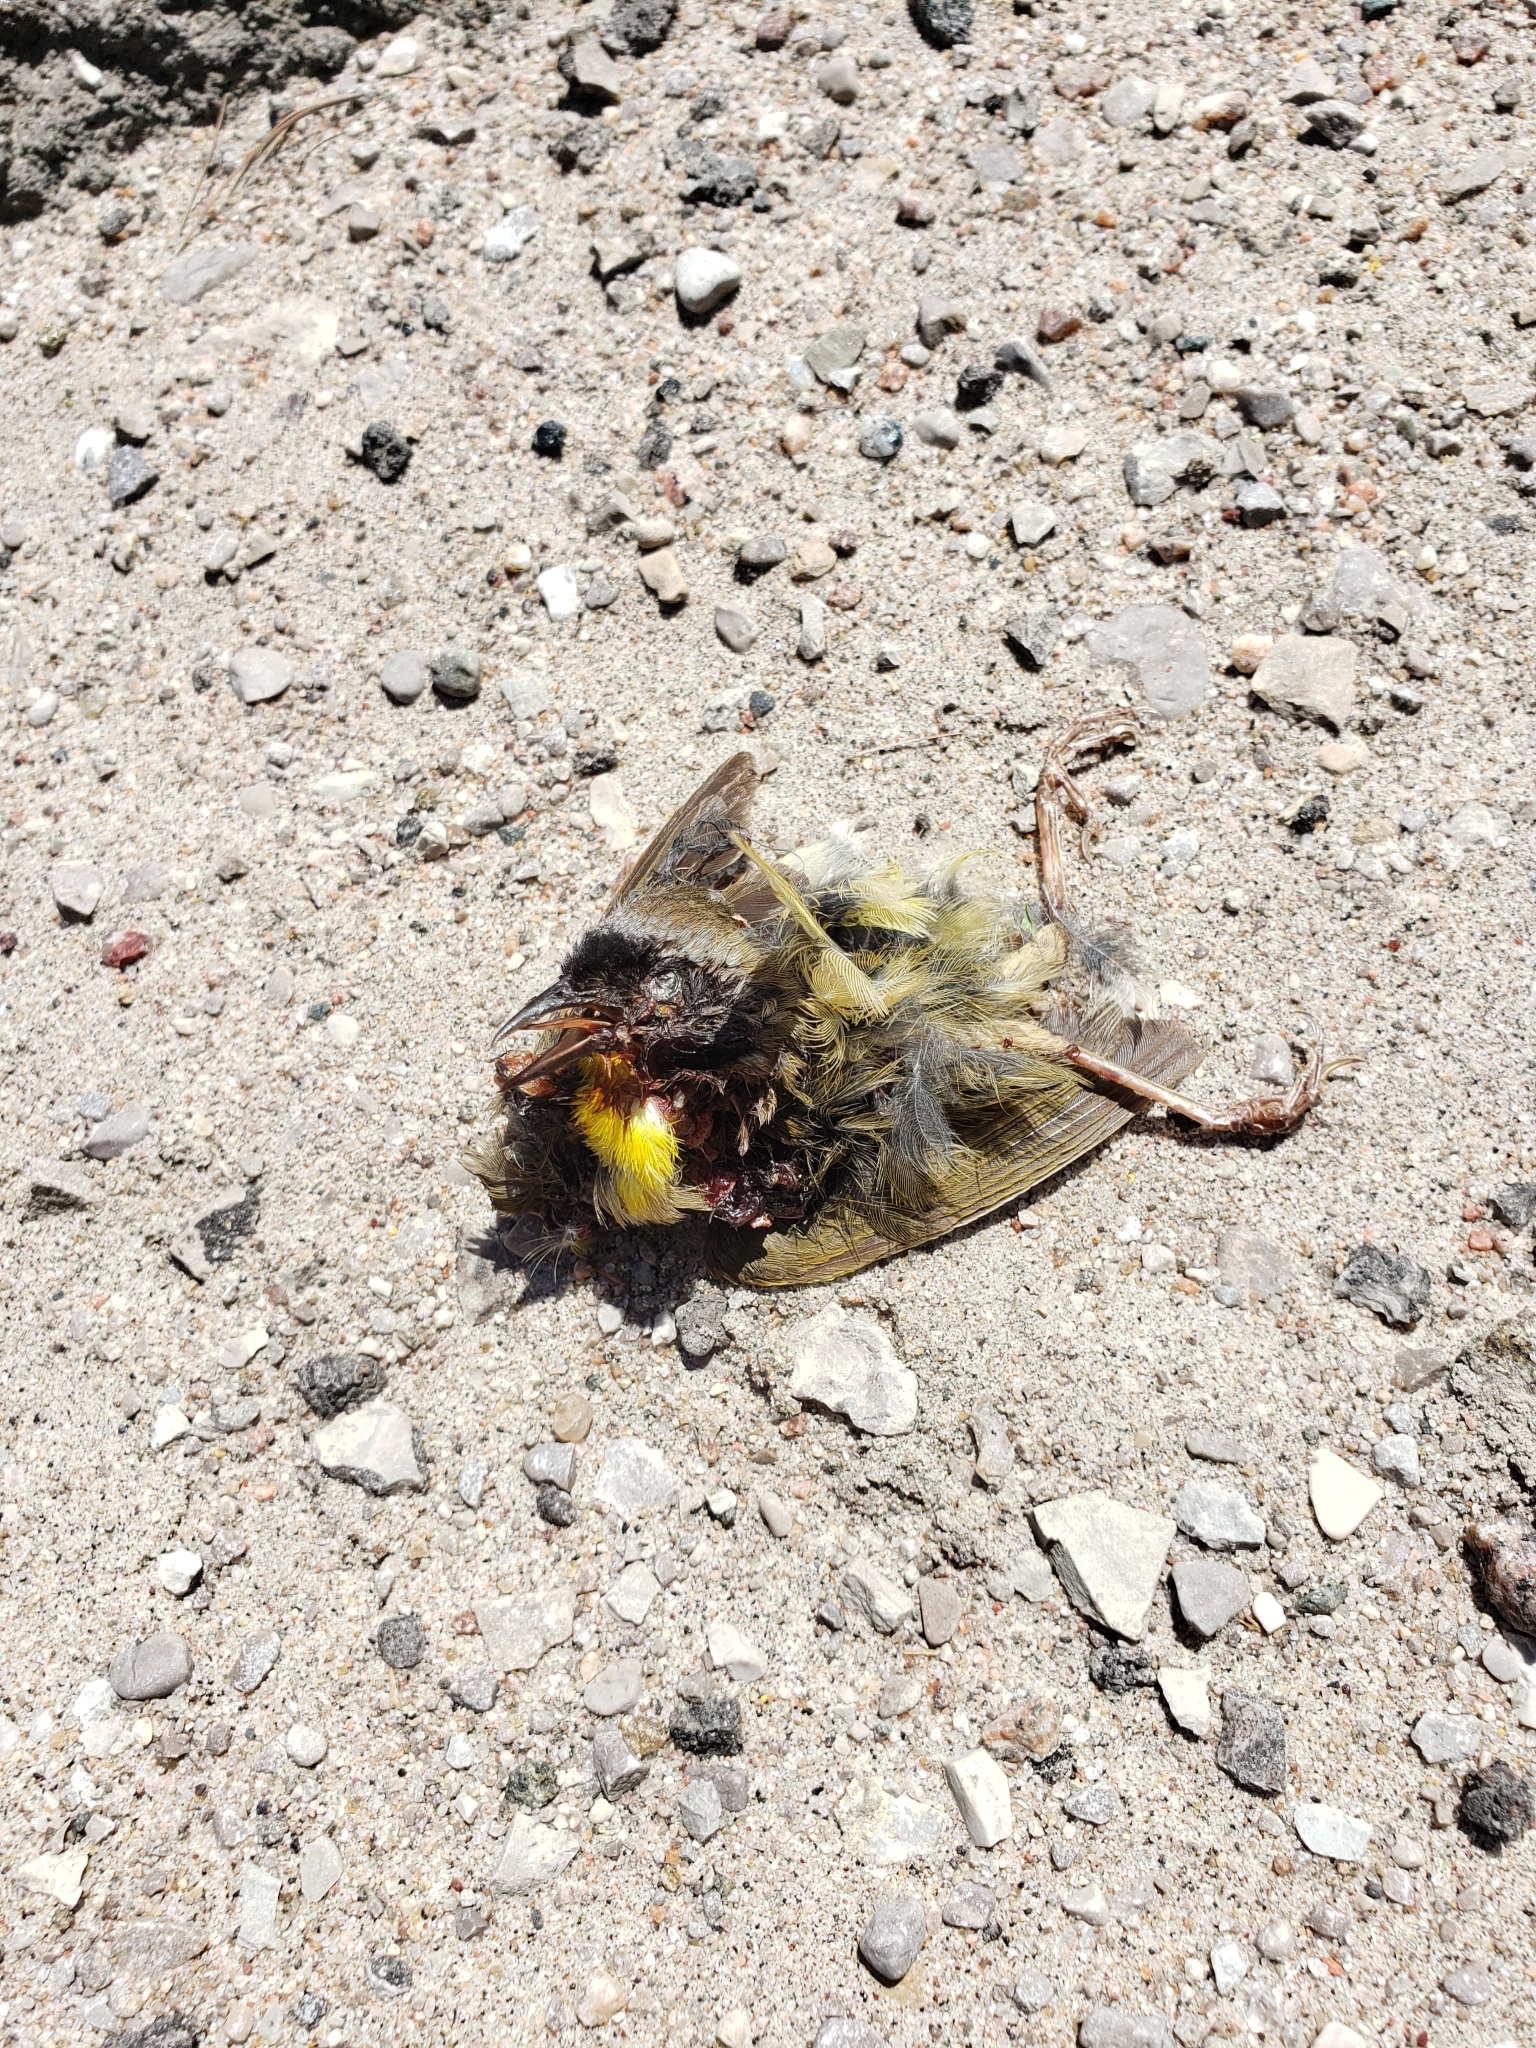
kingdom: Animalia
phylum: Chordata
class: Aves
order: Passeriformes
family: Parulidae
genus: Geothlypis
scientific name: Geothlypis trichas
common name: Common yellowthroat
